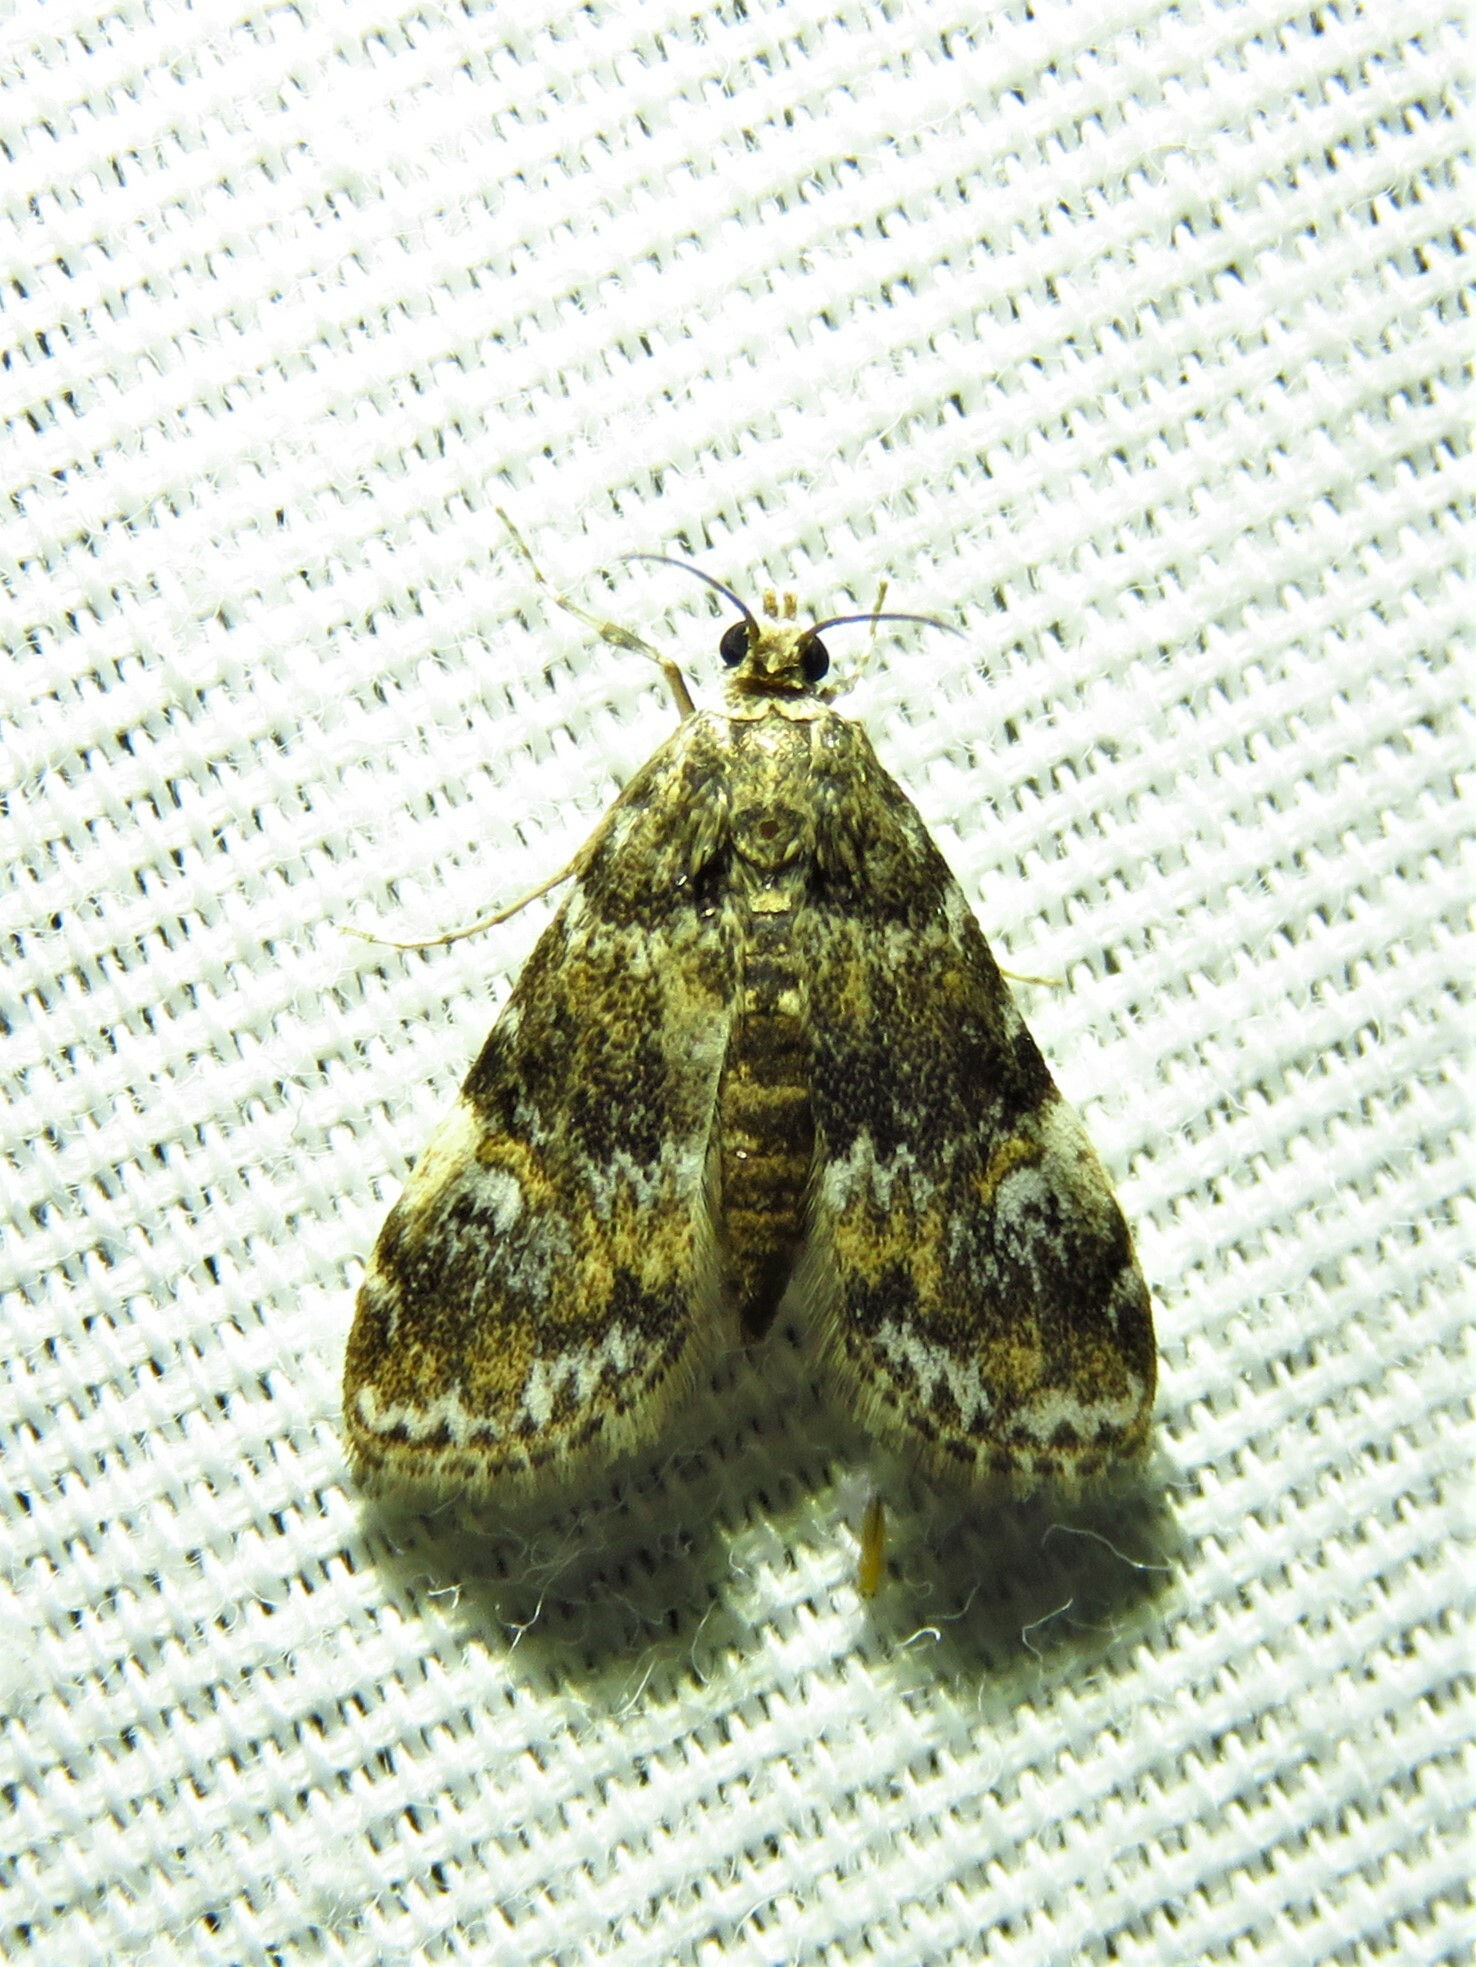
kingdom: Animalia
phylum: Arthropoda
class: Insecta
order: Lepidoptera
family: Crambidae
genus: Elophila
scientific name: Elophila obliteralis
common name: Waterlily leafcutter moth
